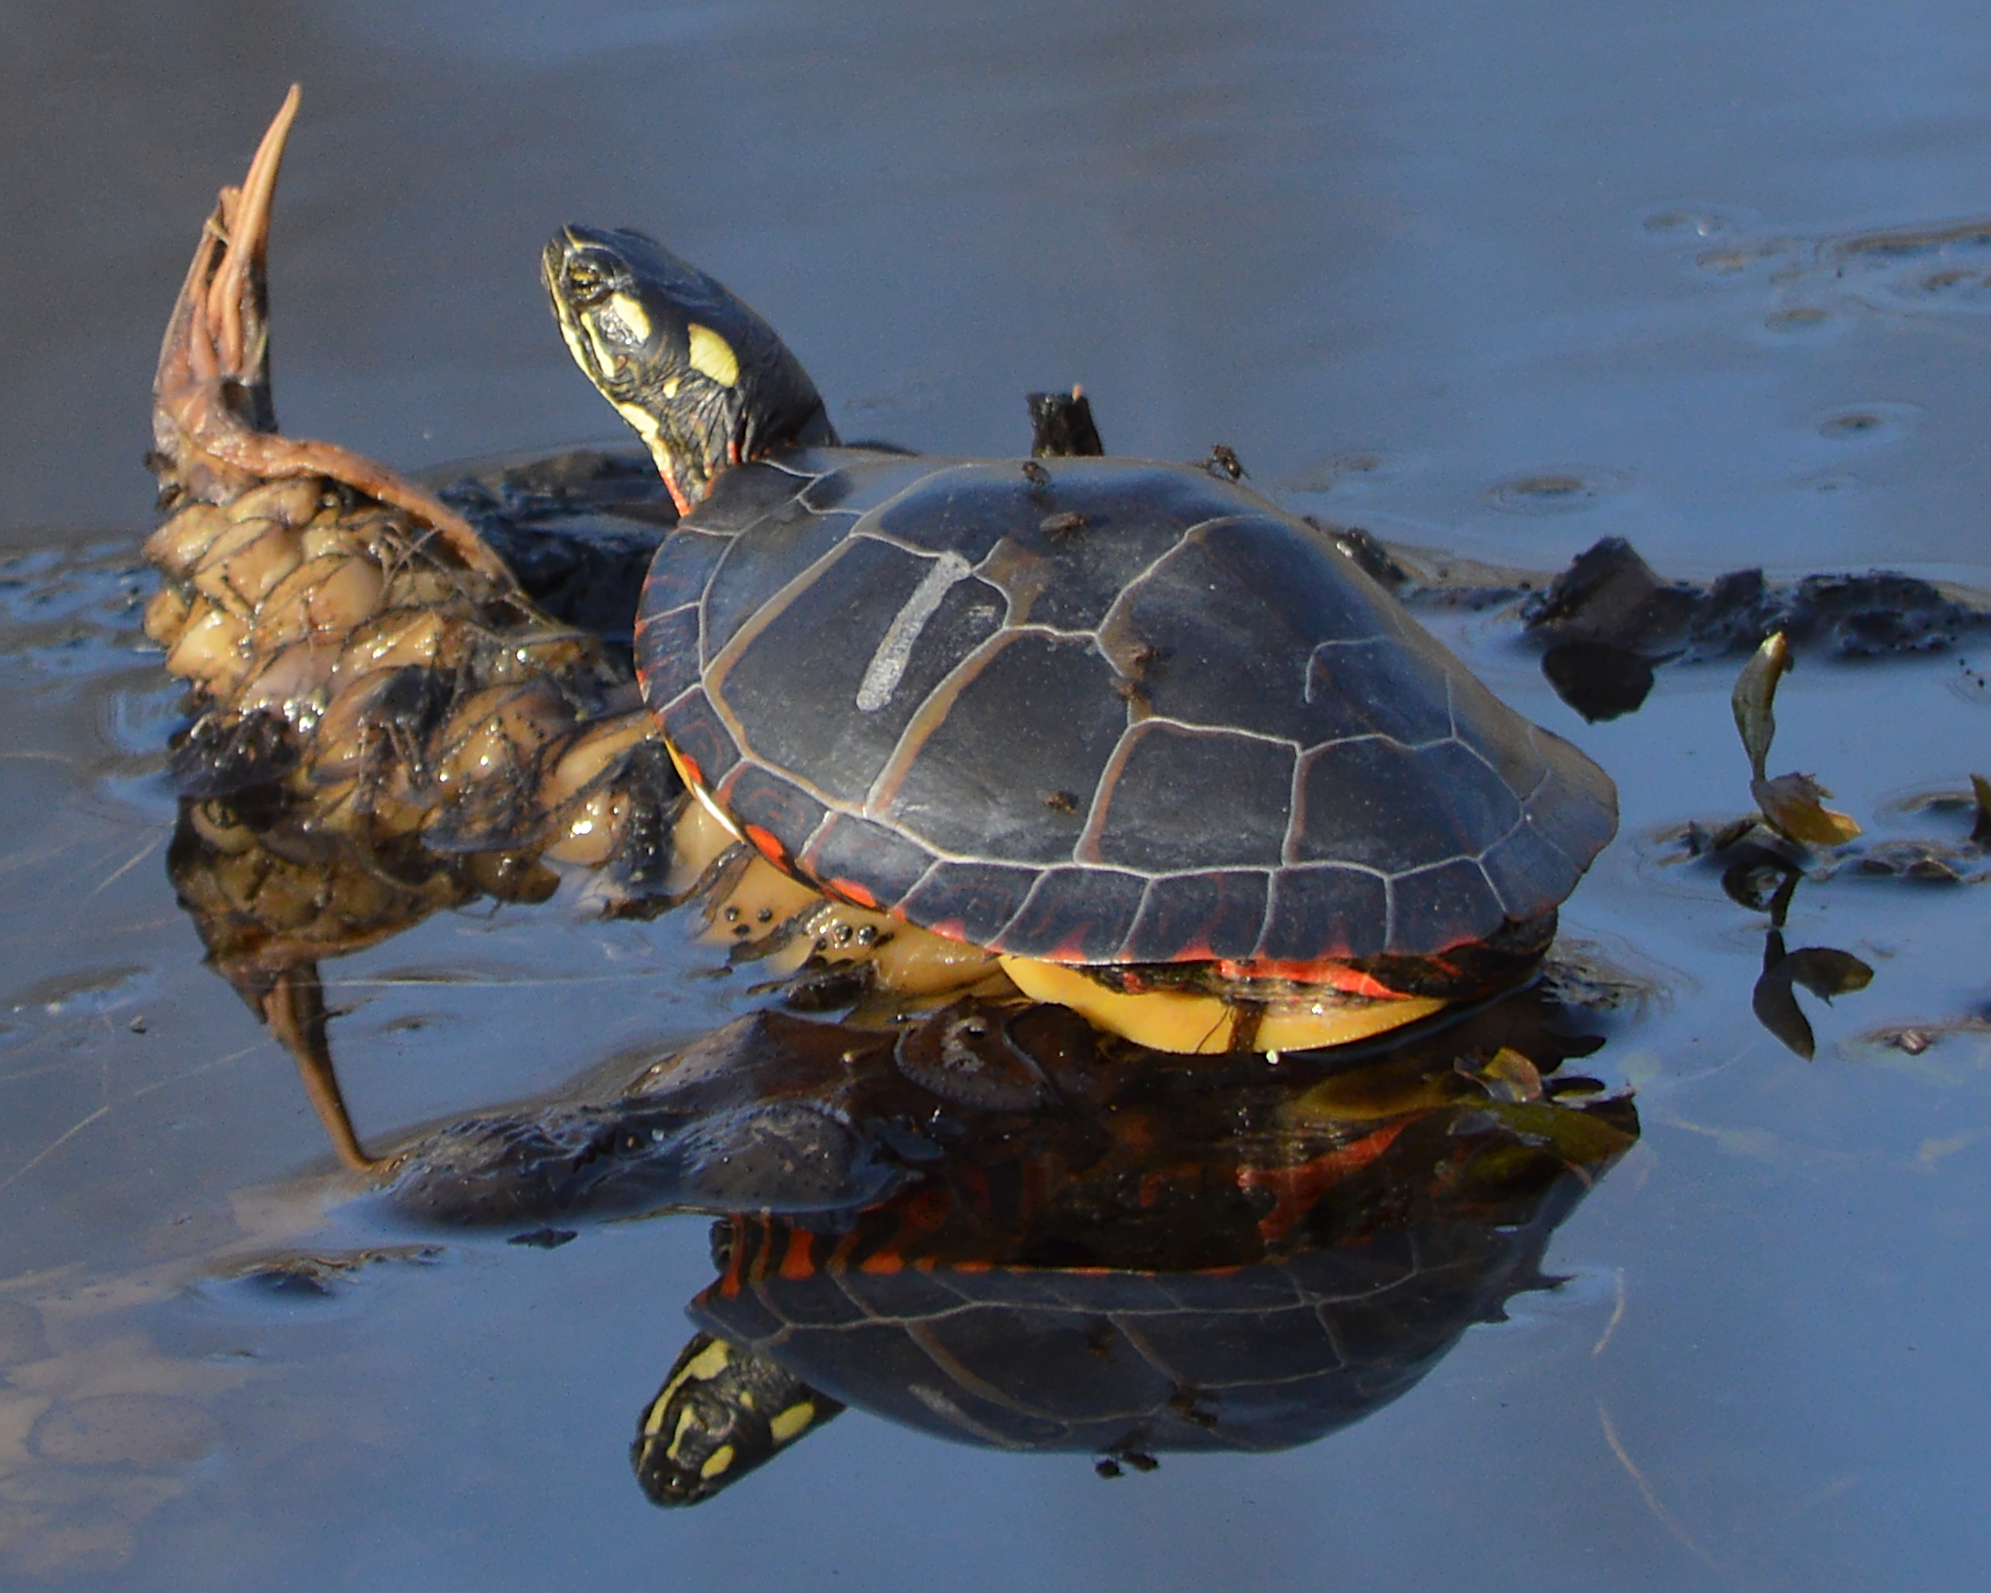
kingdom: Animalia
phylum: Chordata
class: Testudines
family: Emydidae
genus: Chrysemys
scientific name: Chrysemys picta
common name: Painted turtle
